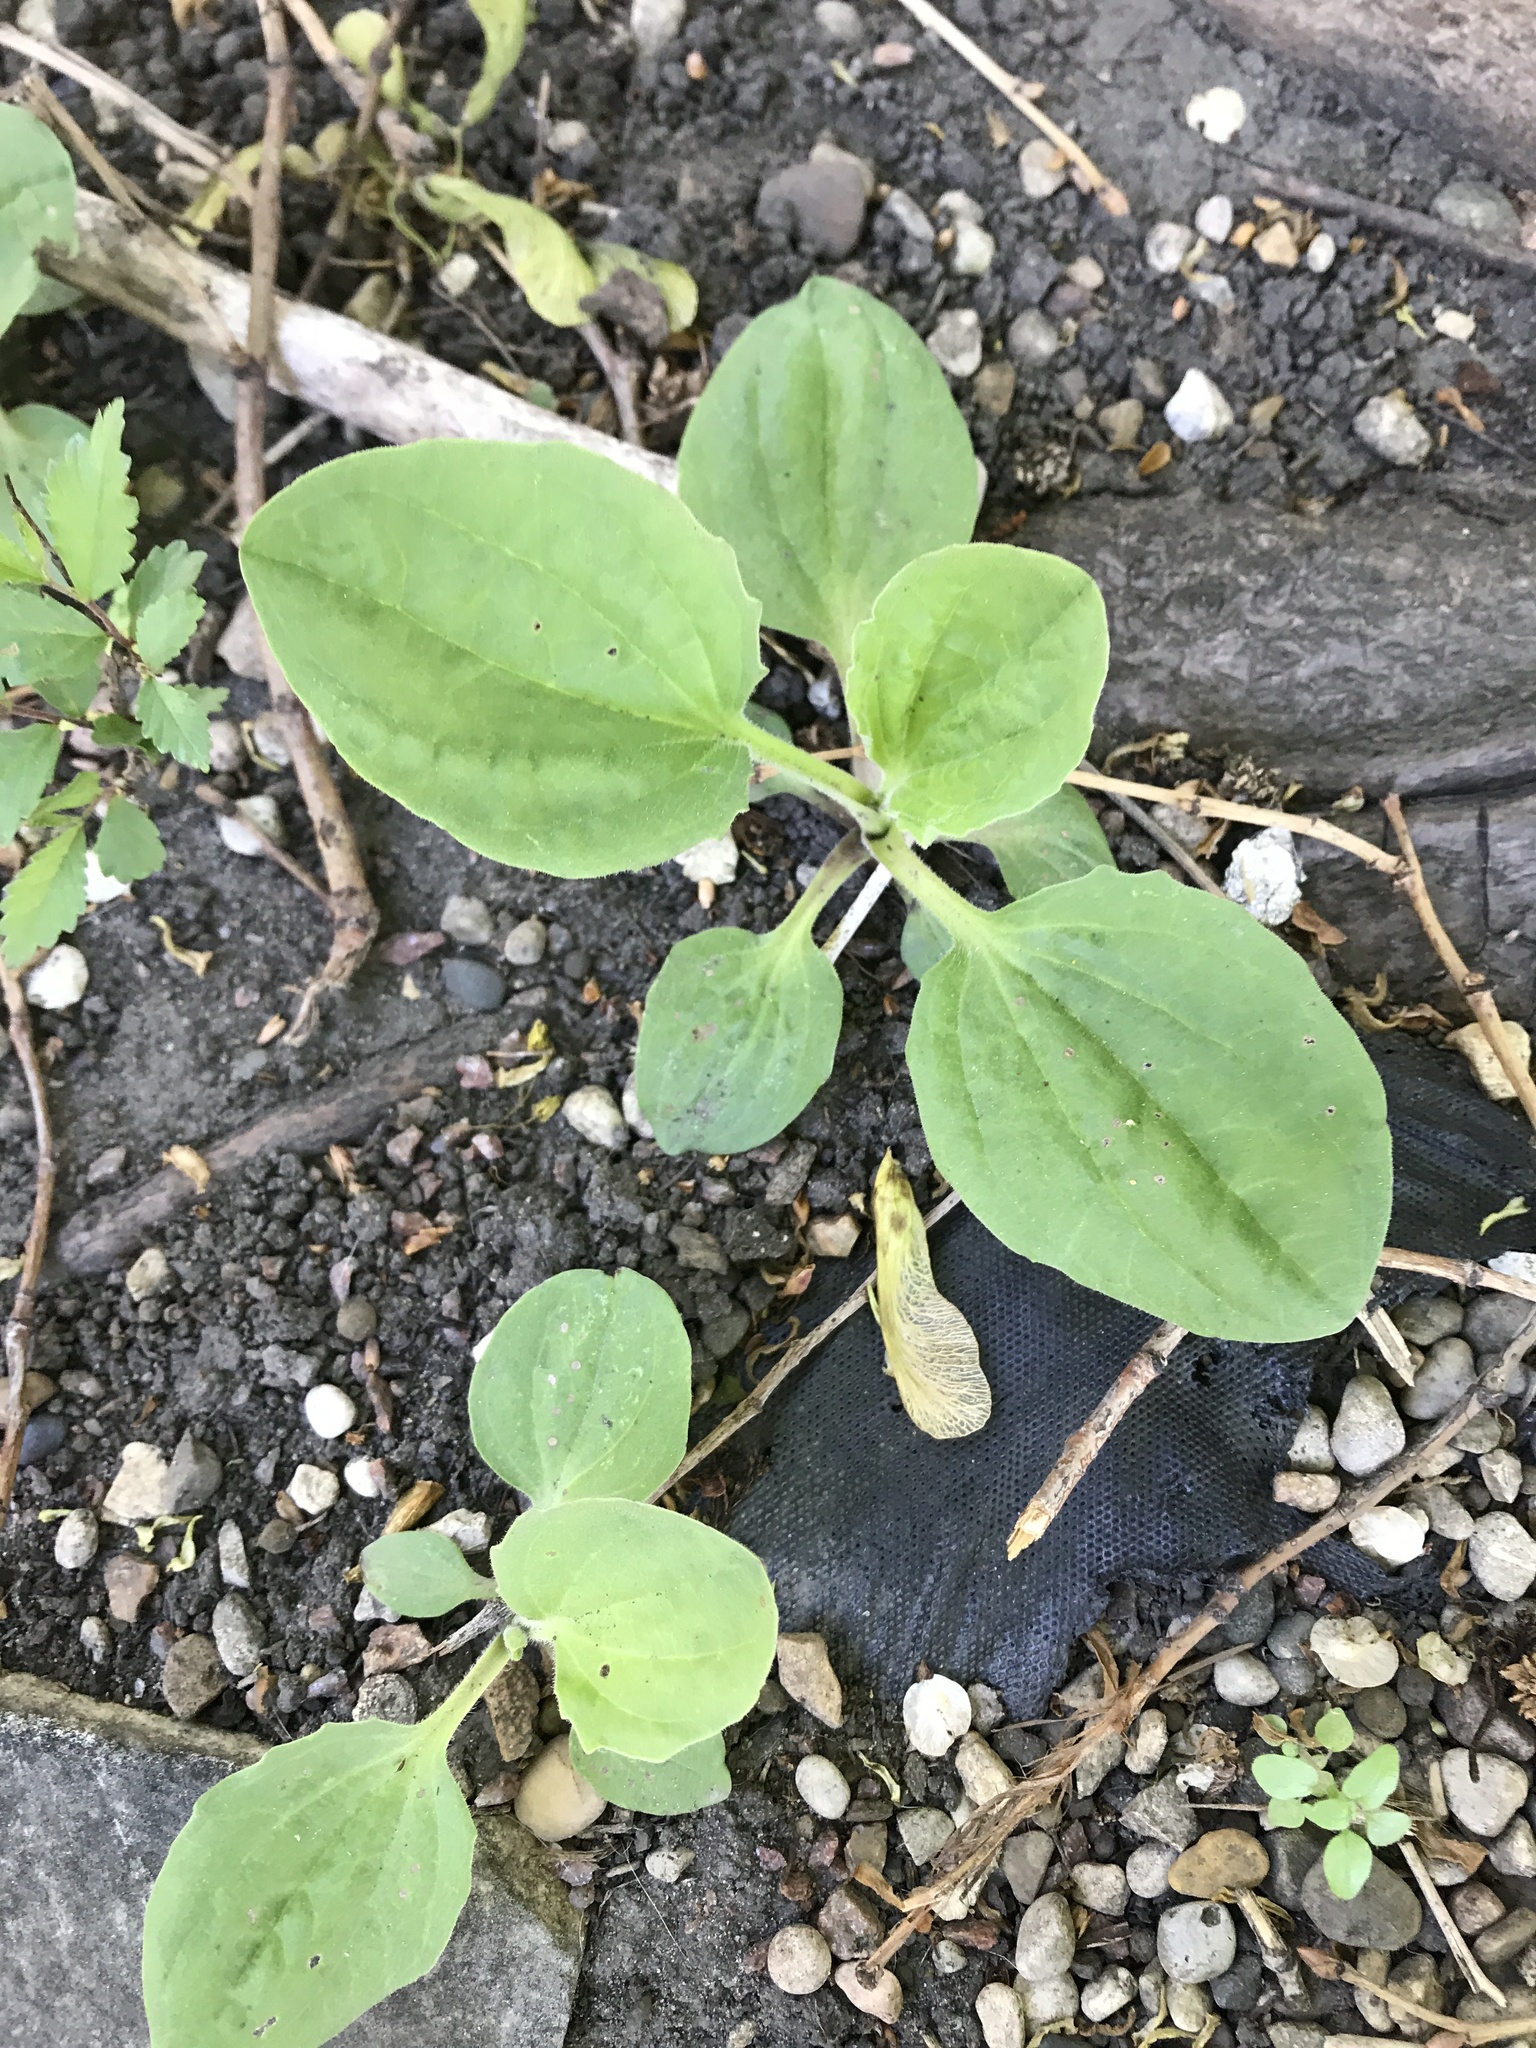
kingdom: Plantae
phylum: Tracheophyta
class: Magnoliopsida
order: Lamiales
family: Plantaginaceae
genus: Plantago
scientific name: Plantago major
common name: Common plantain
